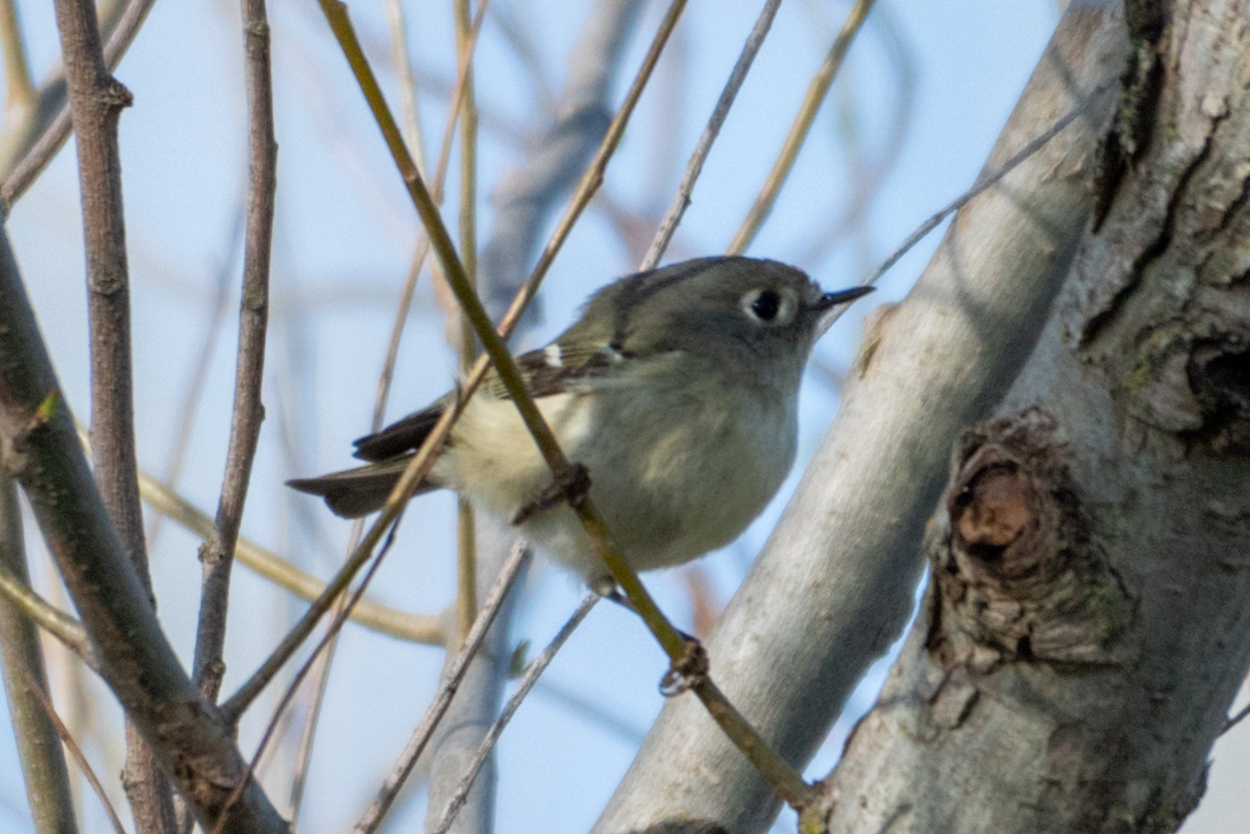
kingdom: Animalia
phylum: Chordata
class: Aves
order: Passeriformes
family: Regulidae
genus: Regulus
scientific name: Regulus calendula
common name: Ruby-crowned kinglet
